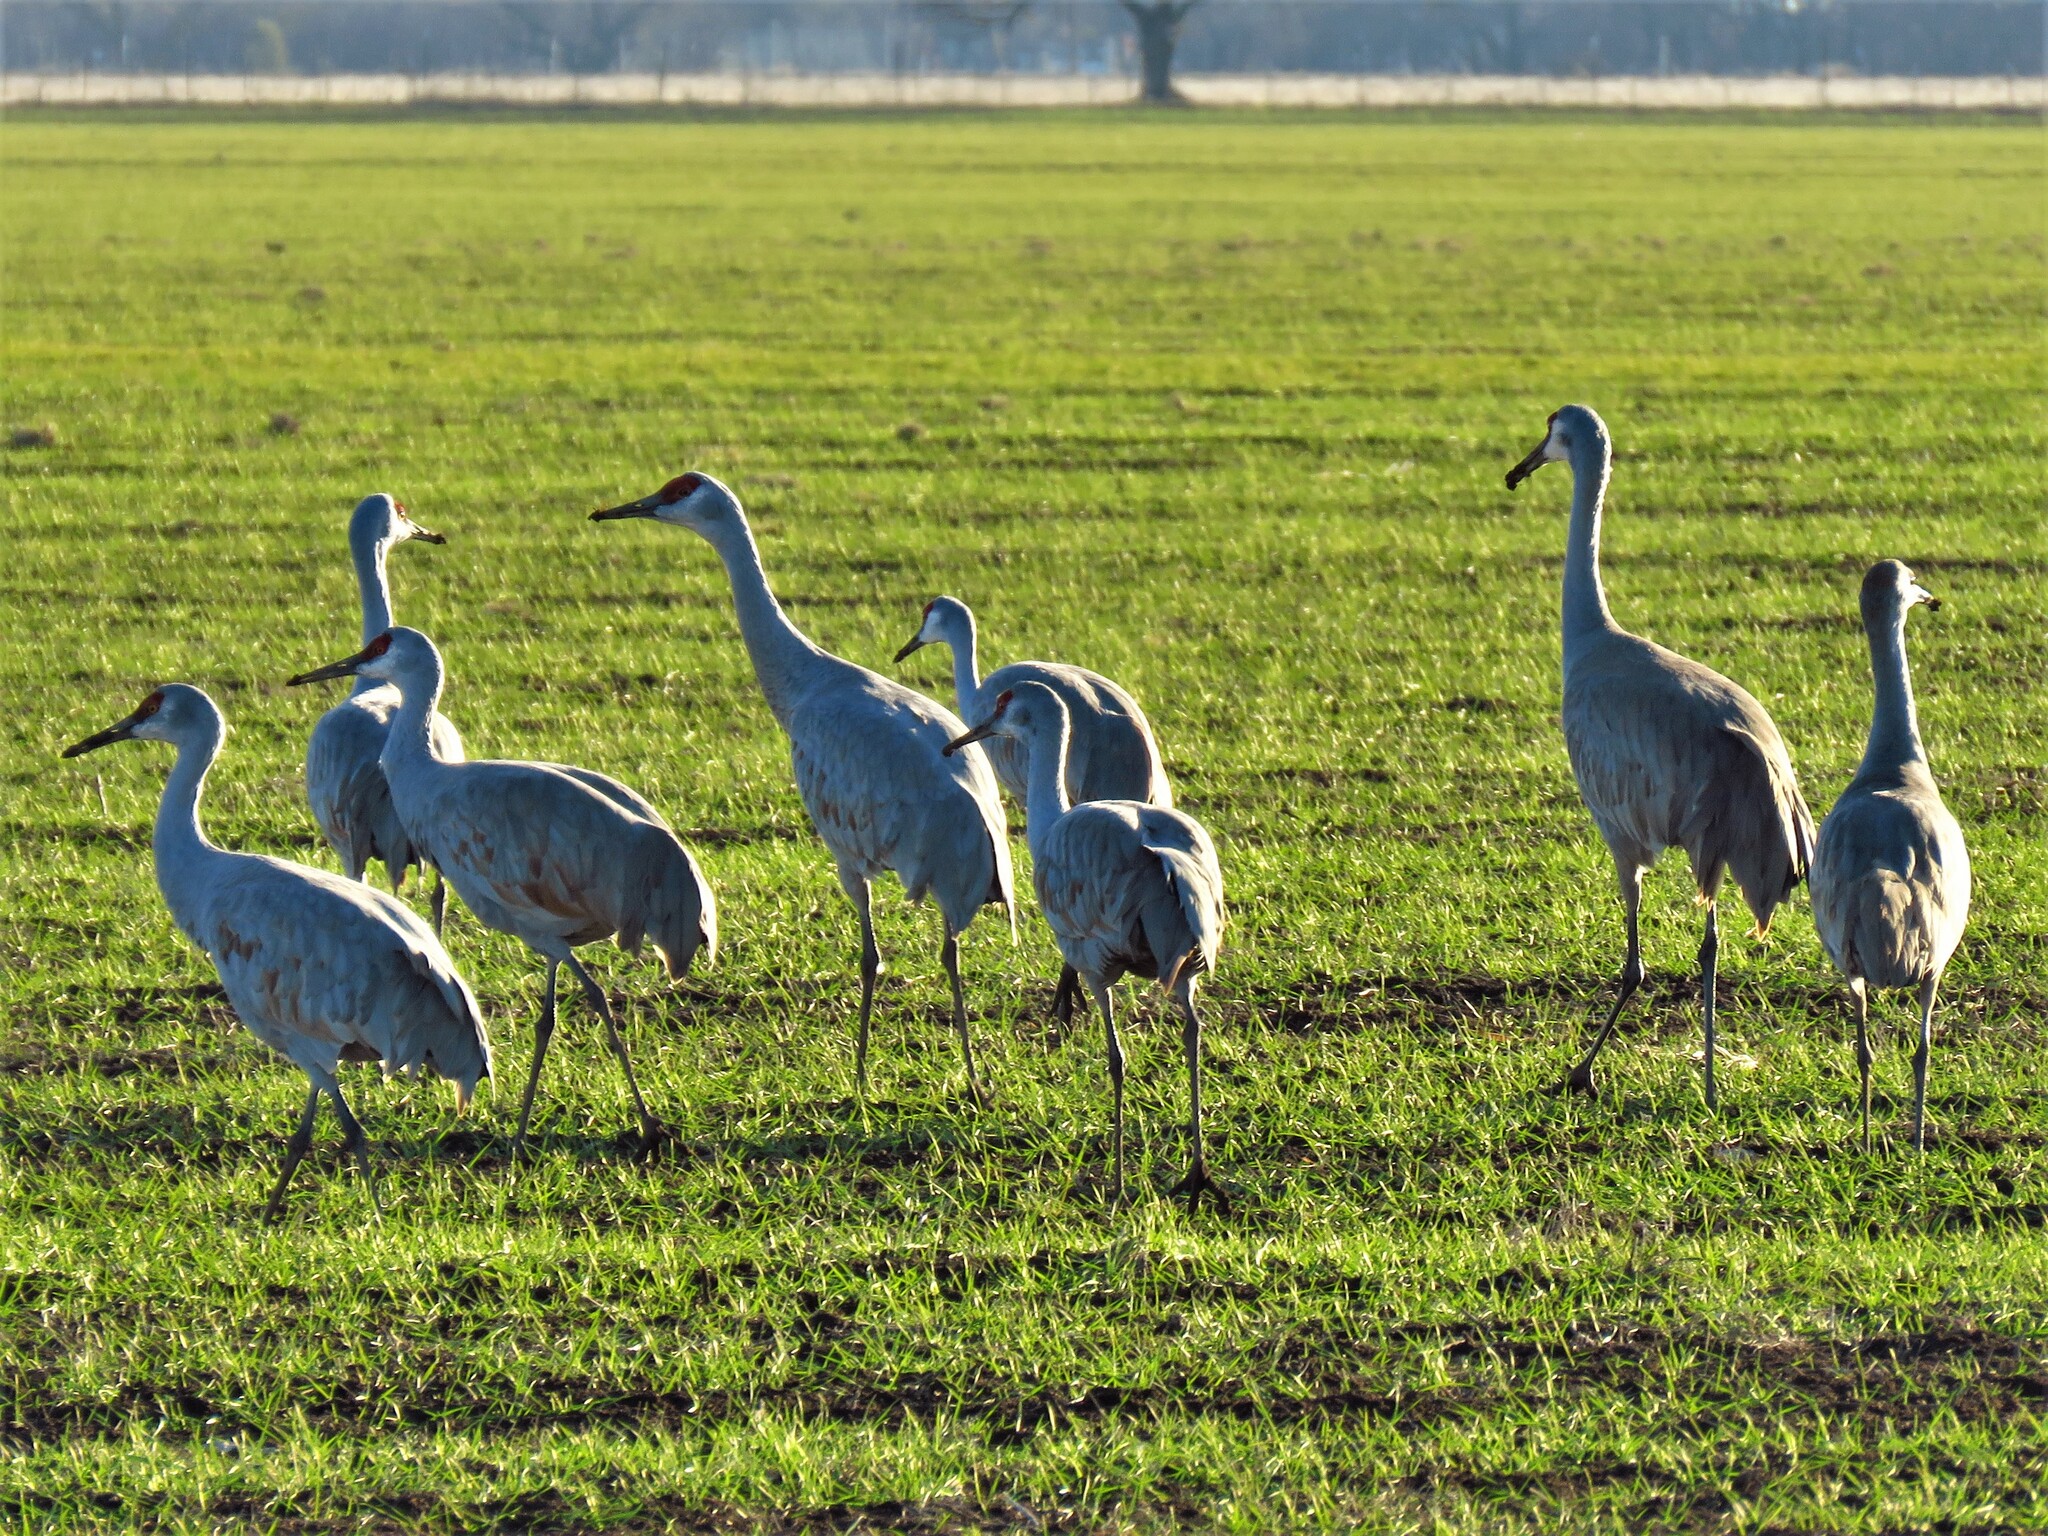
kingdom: Animalia
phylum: Chordata
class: Aves
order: Gruiformes
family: Gruidae
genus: Grus
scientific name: Grus canadensis
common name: Sandhill crane
